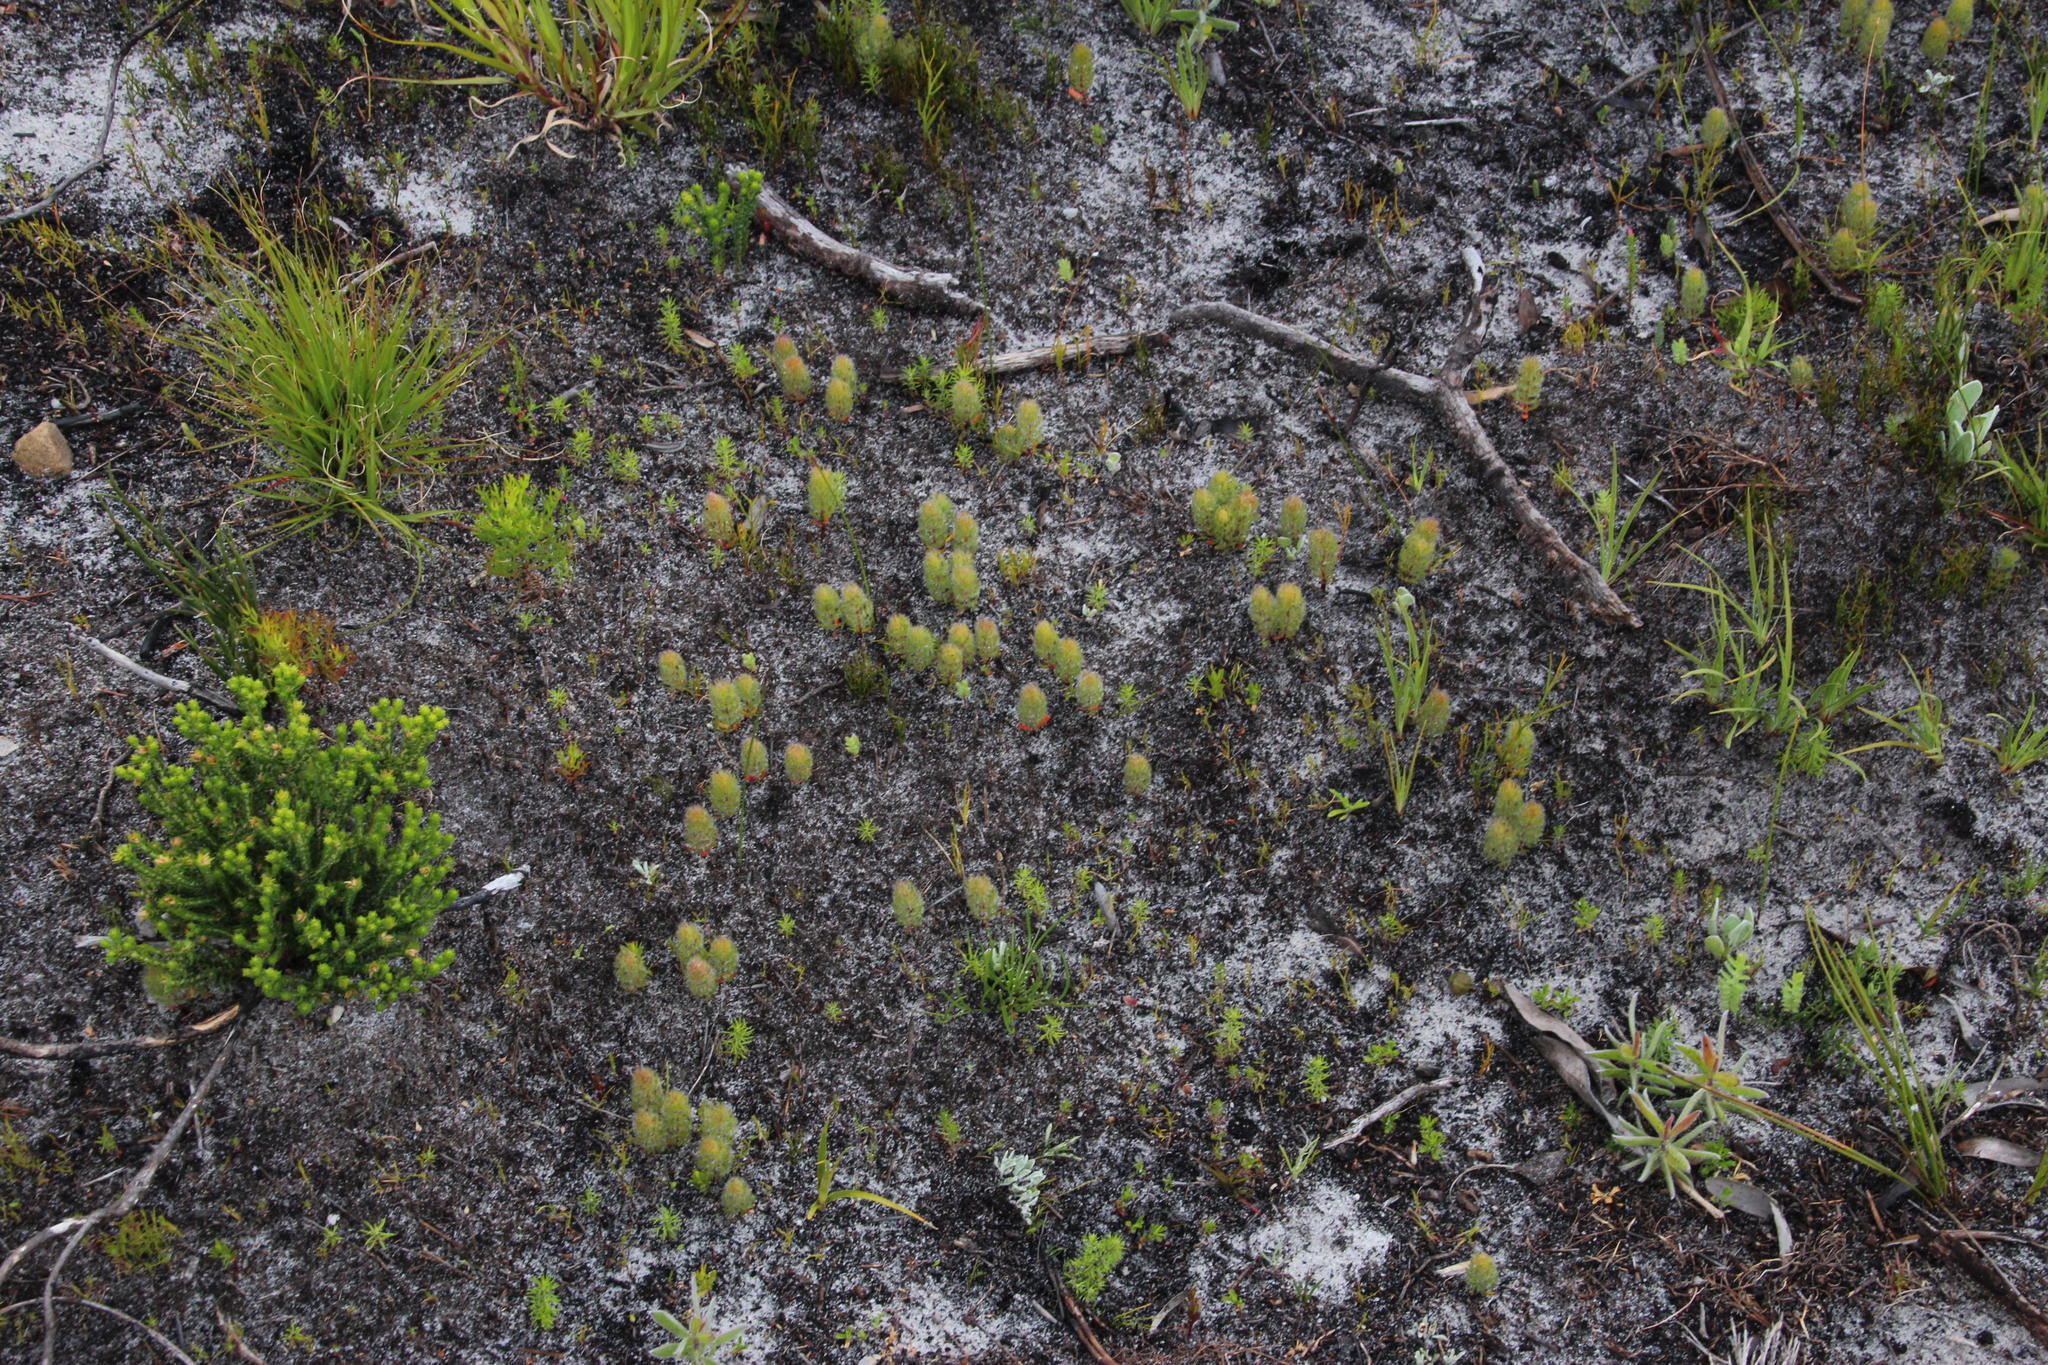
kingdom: Plantae
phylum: Tracheophyta
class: Magnoliopsida
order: Proteales
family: Proteaceae
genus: Serruria
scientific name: Serruria villosa
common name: Golden spiderhead
